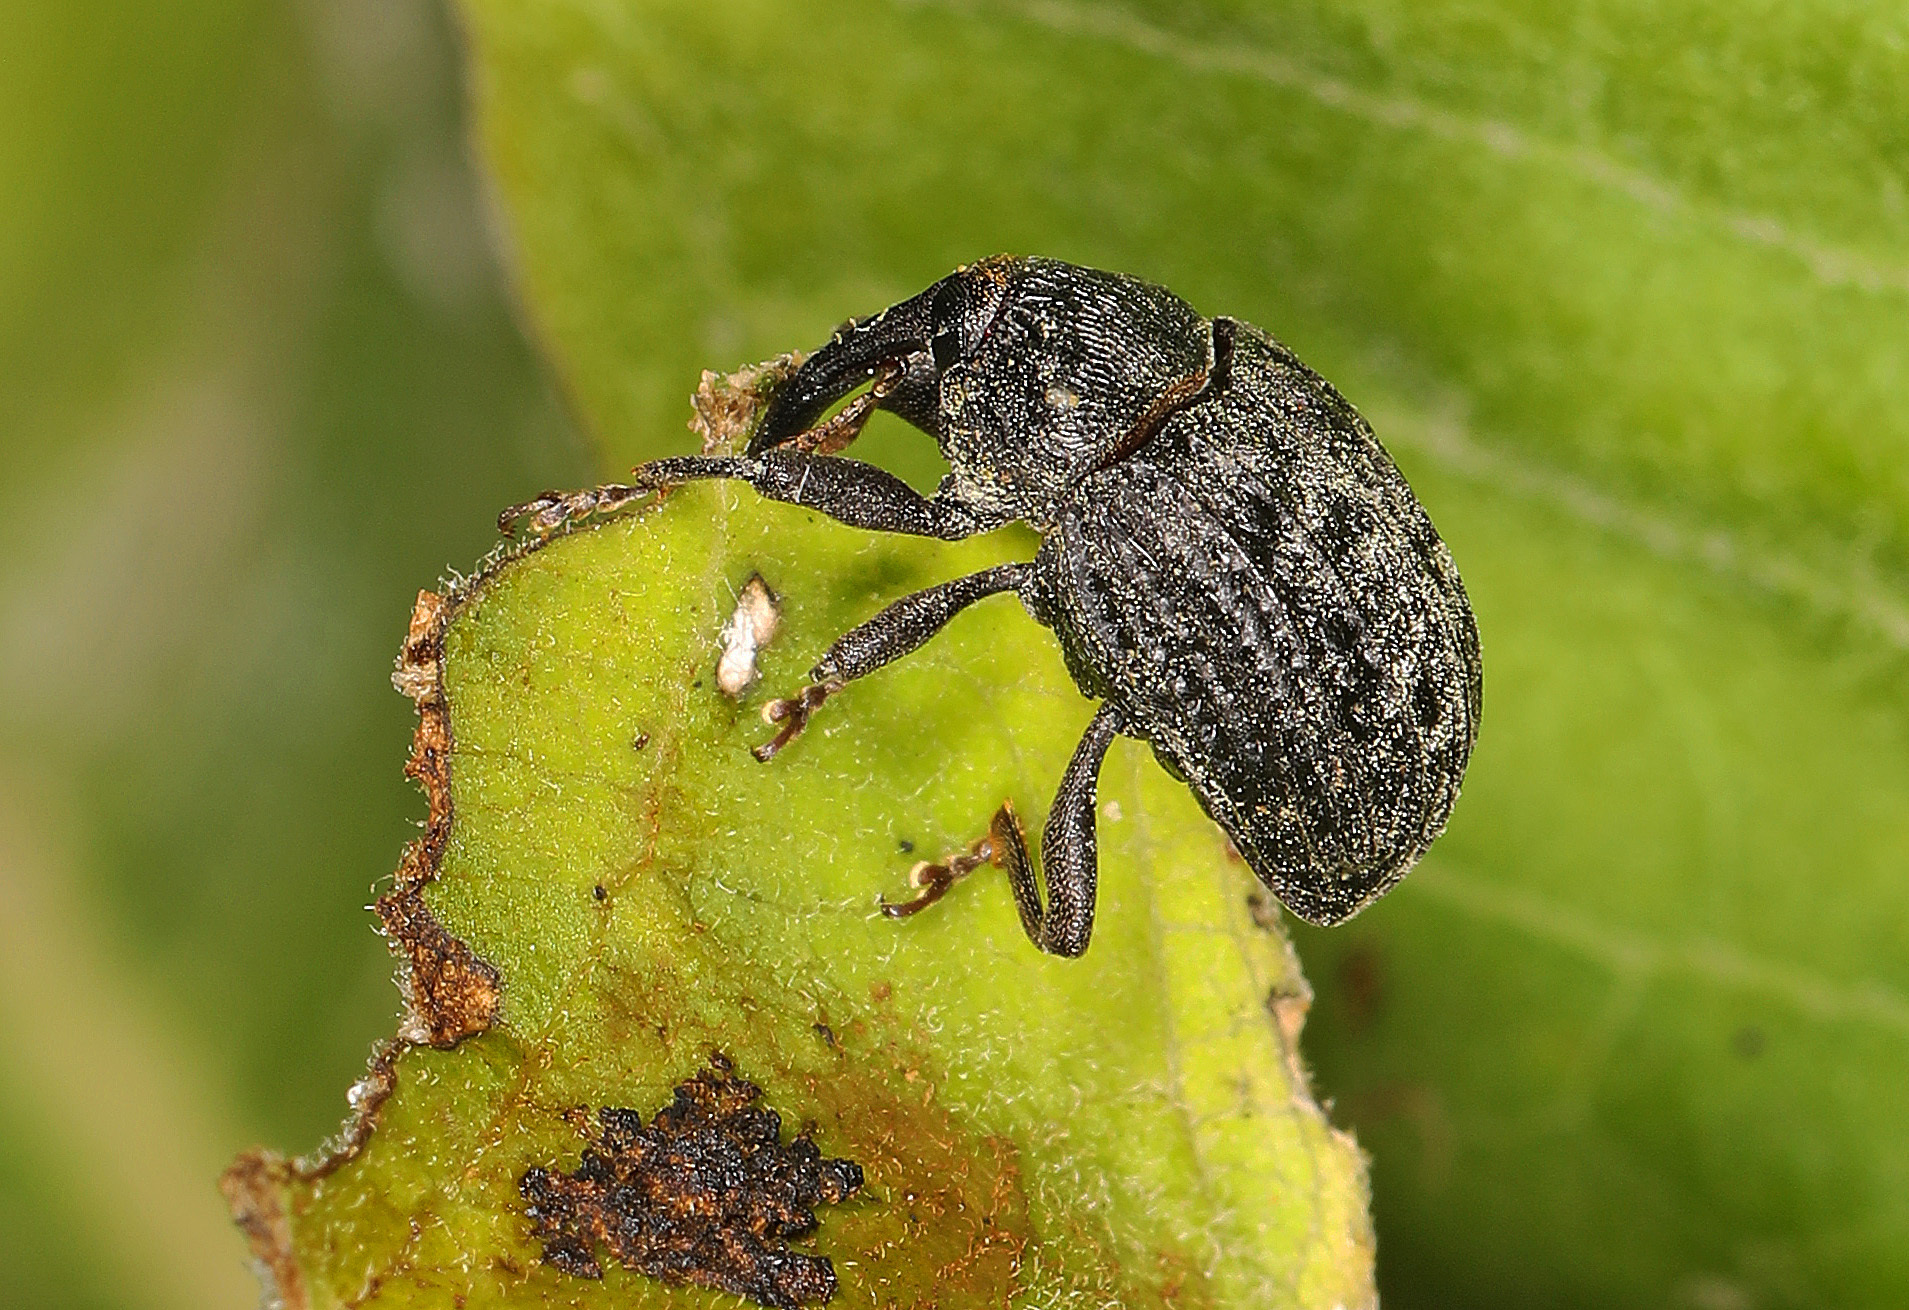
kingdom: Animalia
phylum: Arthropoda
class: Insecta
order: Coleoptera
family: Curculionidae
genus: Rhyssomatus
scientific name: Rhyssomatus lineaticollis
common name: Milkweed stem weevil
